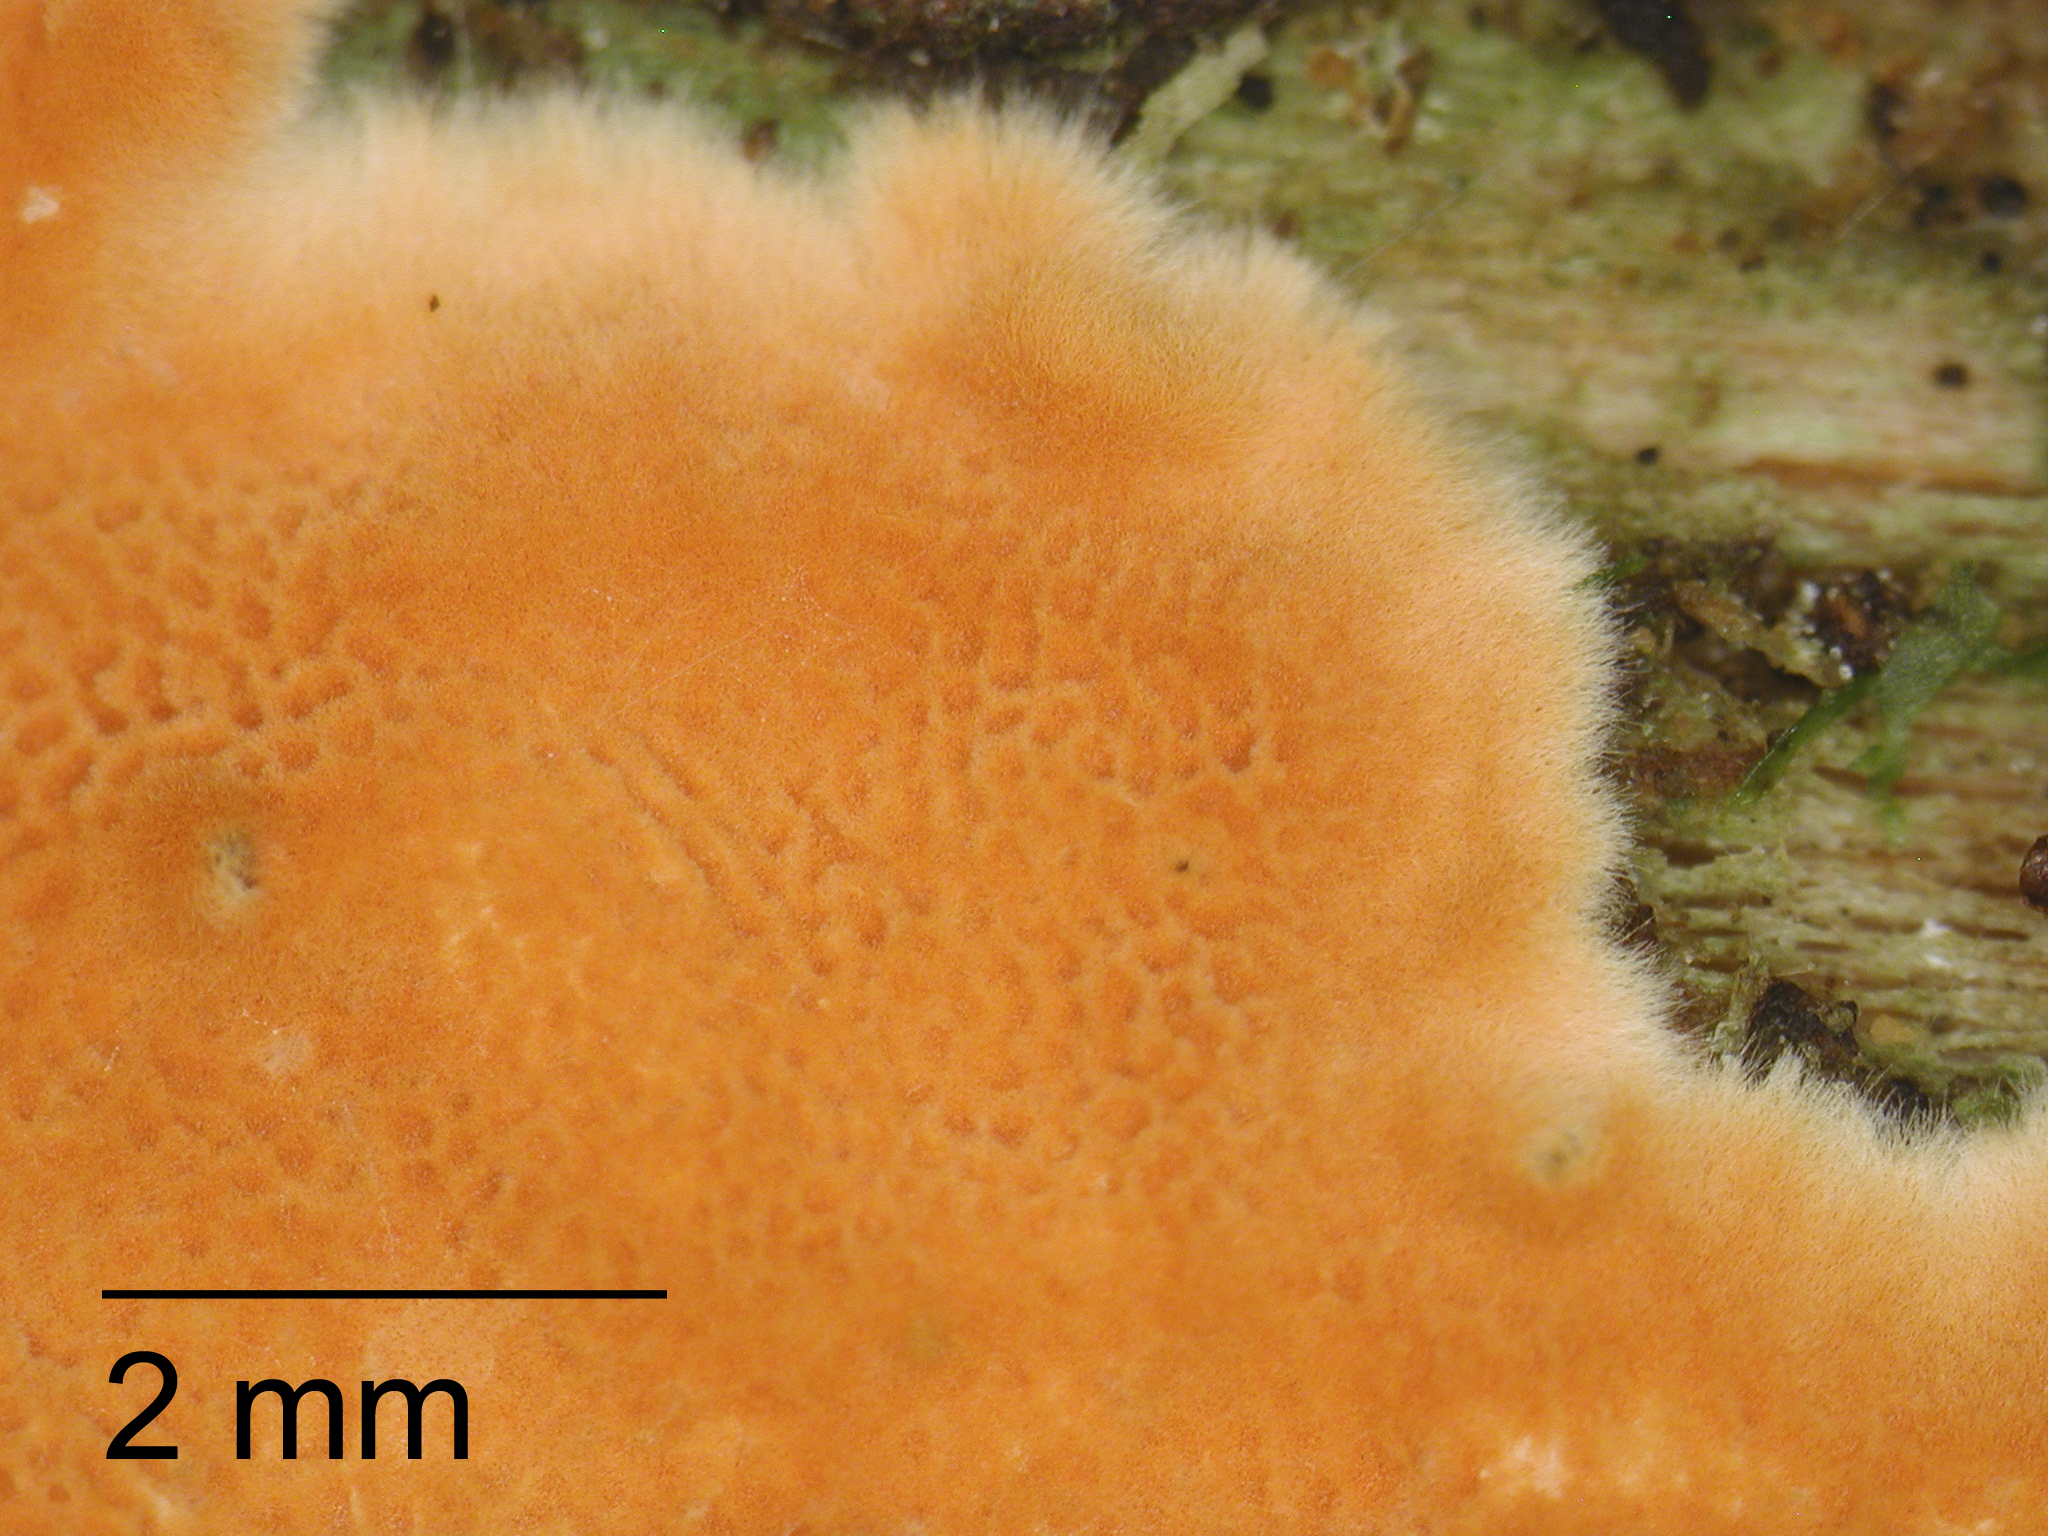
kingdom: Fungi
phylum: Basidiomycota
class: Agaricomycetes
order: Polyporales
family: Incrustoporiaceae
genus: Gloeoporellus
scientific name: Gloeoporellus merulinus
